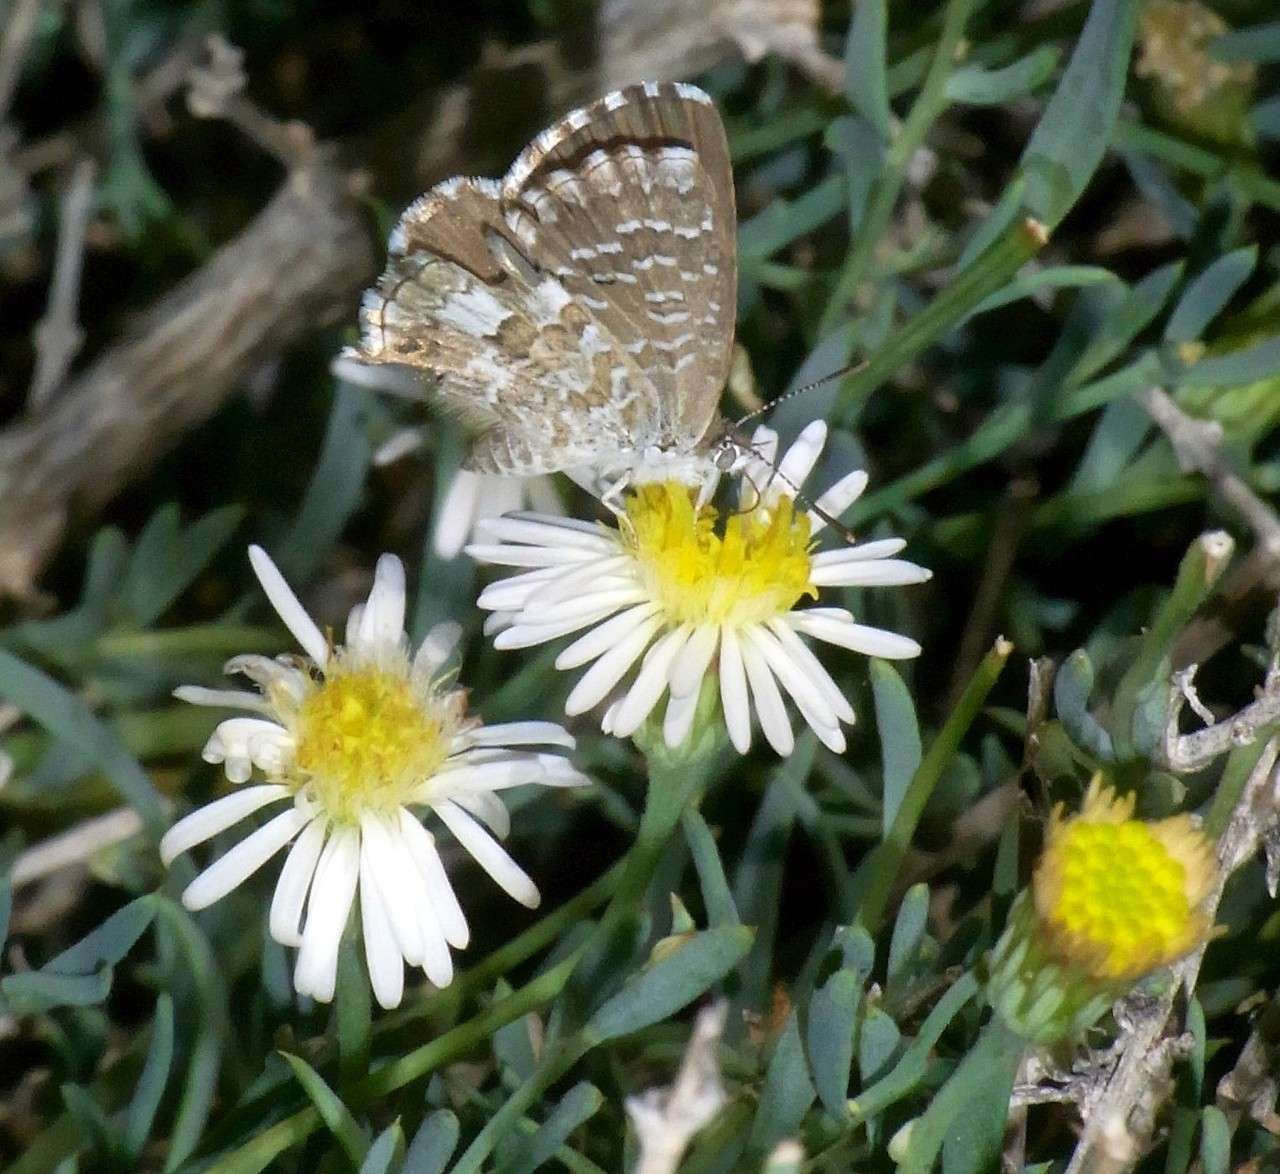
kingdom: Animalia
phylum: Arthropoda
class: Insecta
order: Lepidoptera
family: Lycaenidae
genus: Theclinesthes
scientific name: Theclinesthes serpentata
